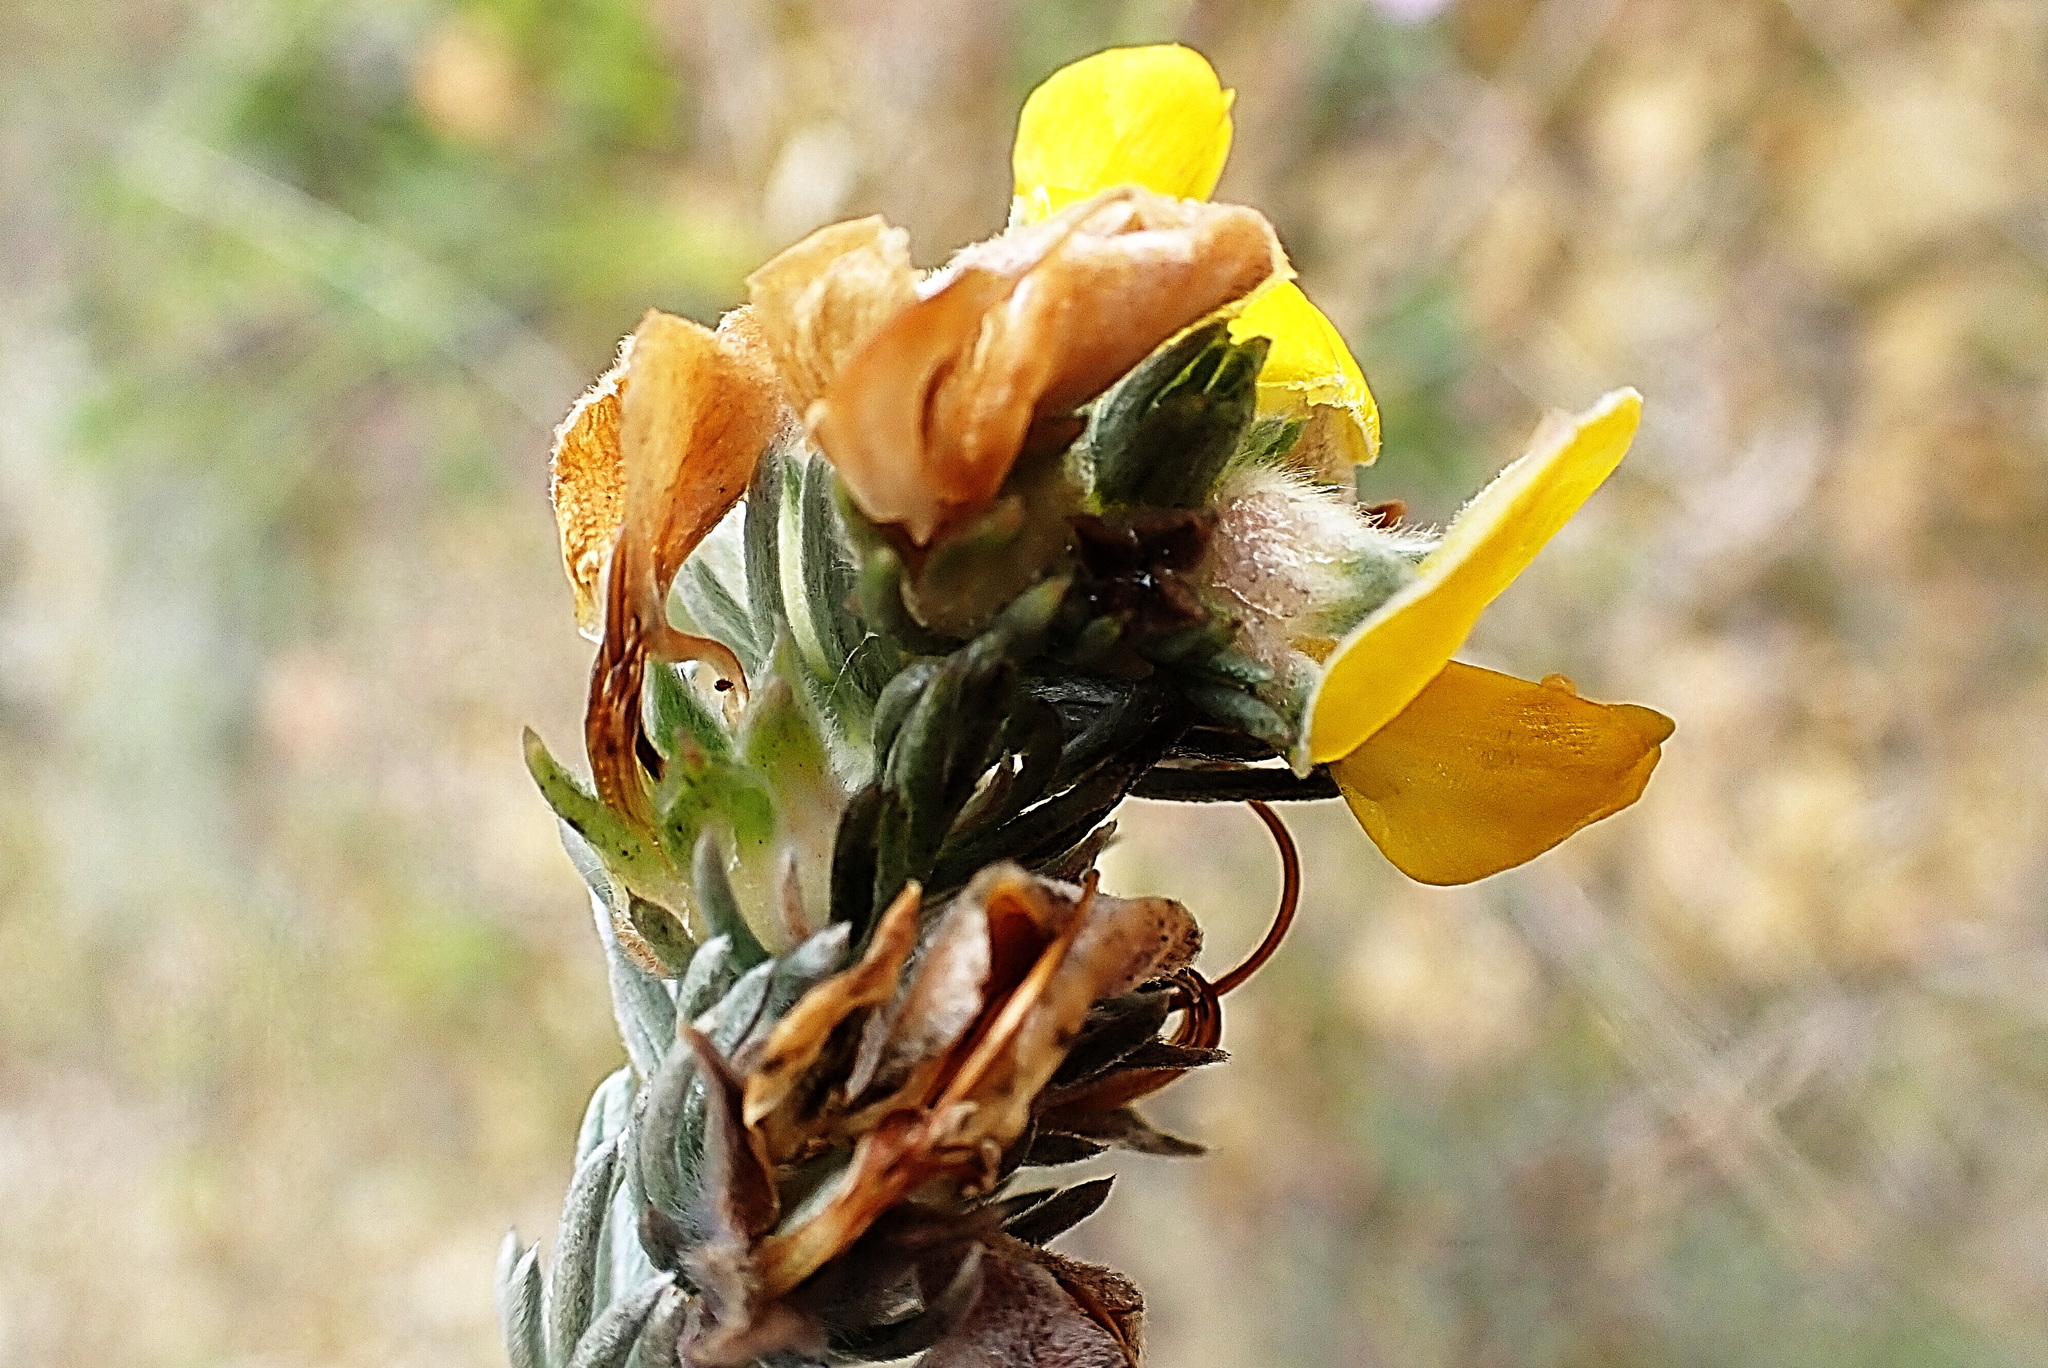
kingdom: Plantae
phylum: Tracheophyta
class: Magnoliopsida
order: Fabales
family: Fabaceae
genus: Aspalathus
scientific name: Aspalathus nickhelmei
